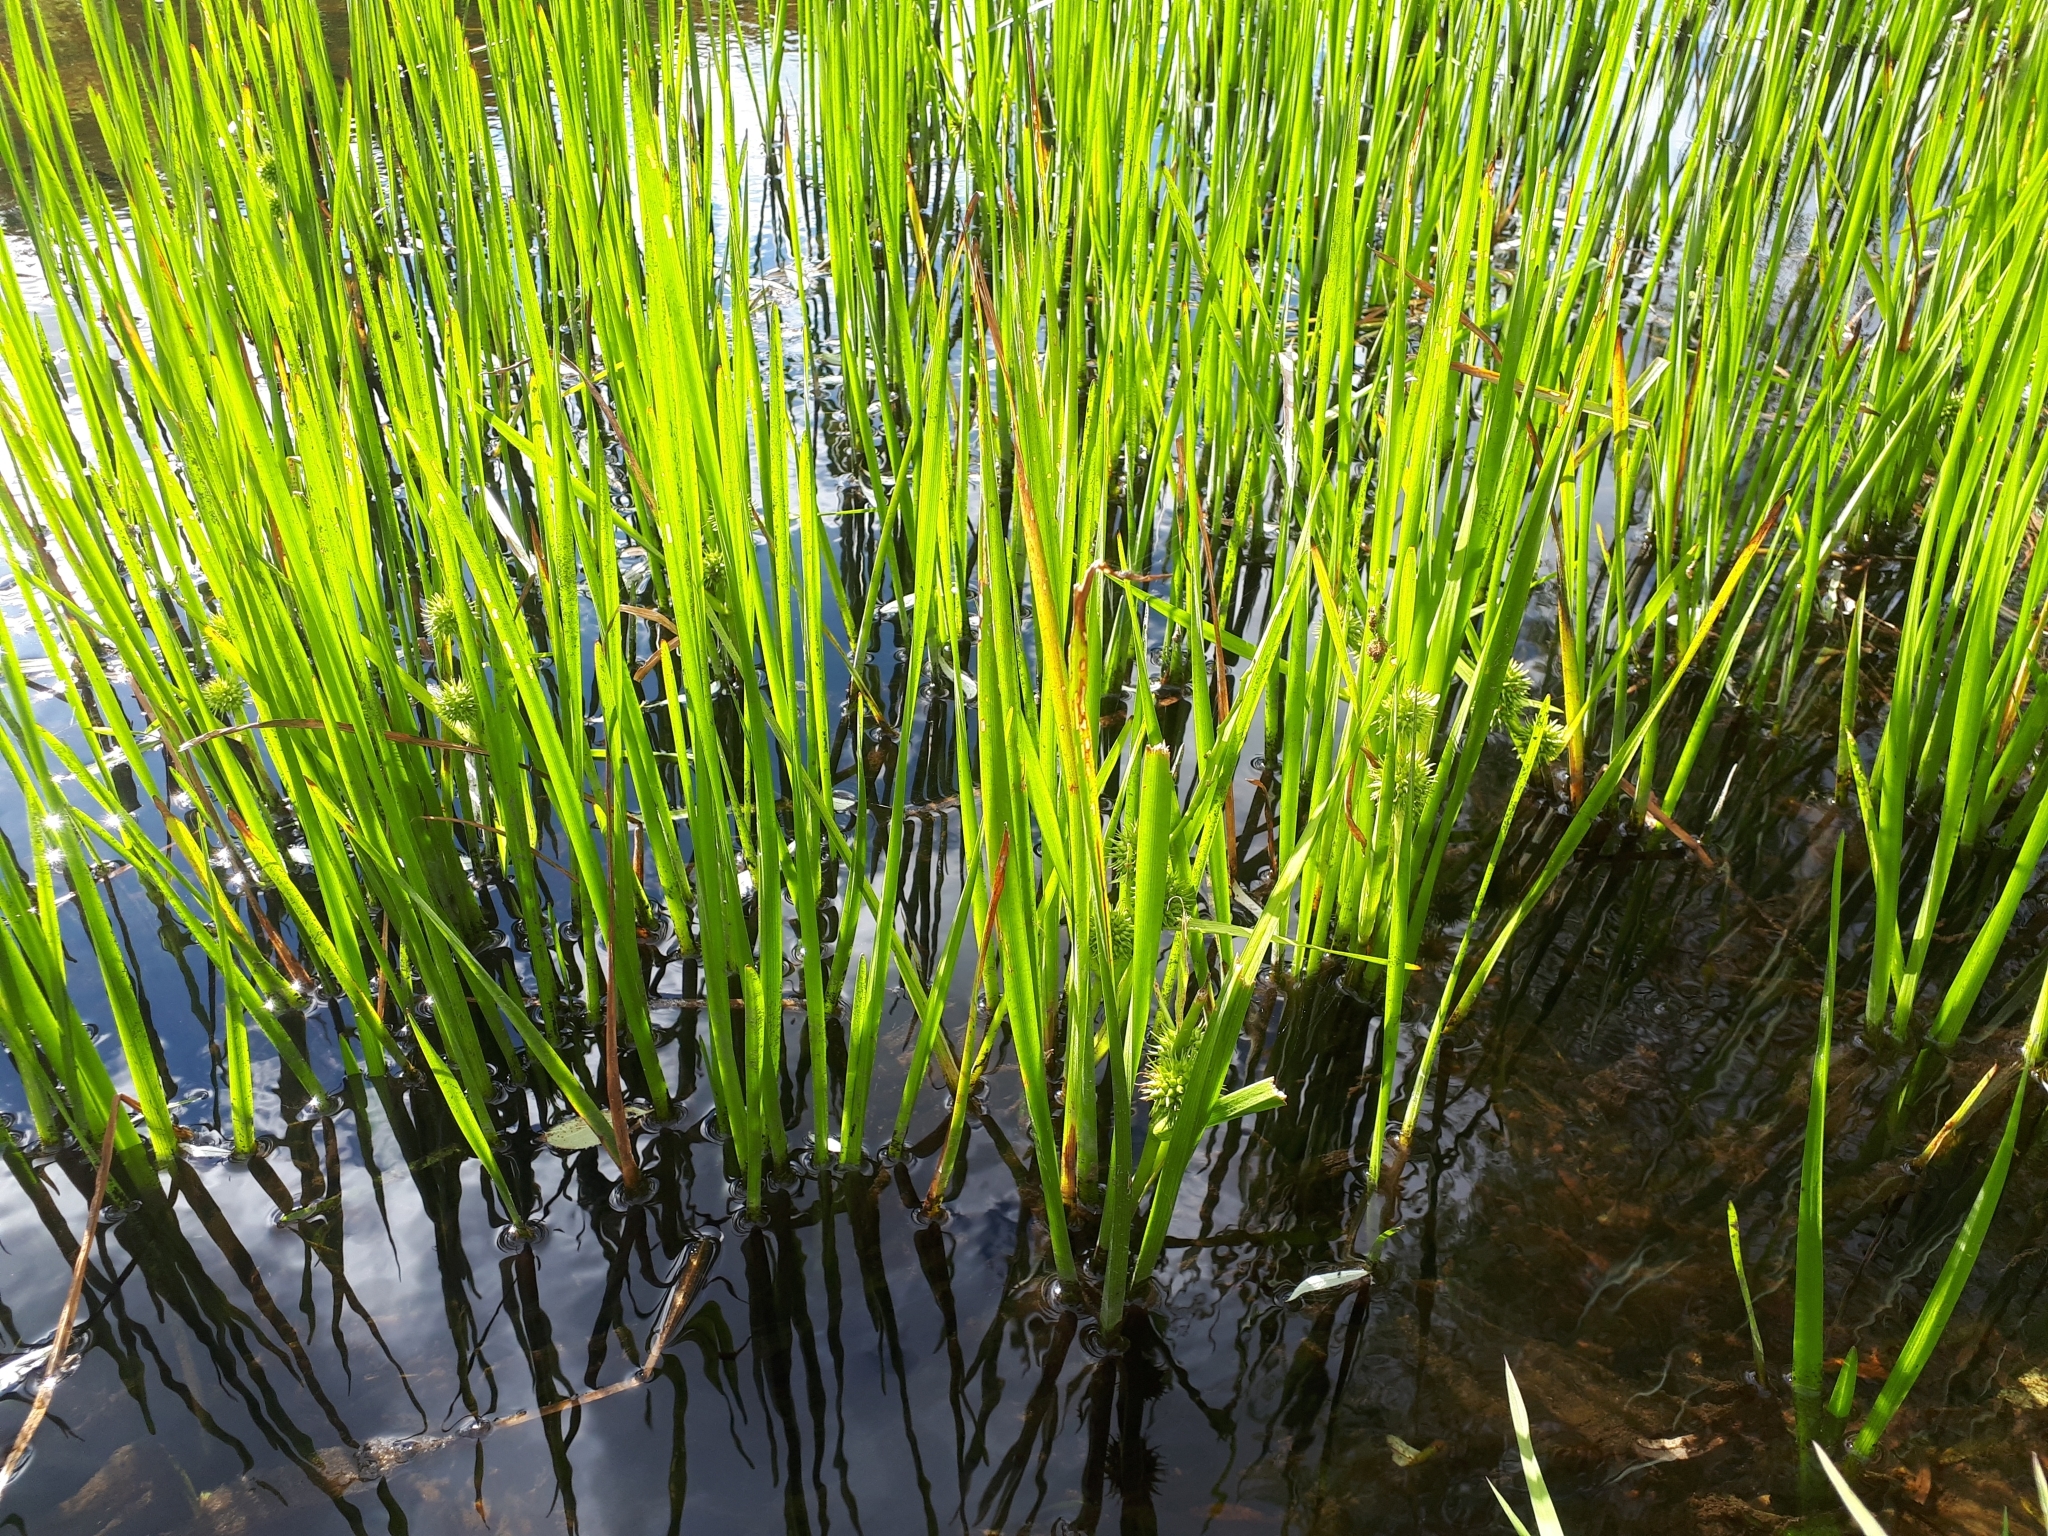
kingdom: Plantae
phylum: Tracheophyta
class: Liliopsida
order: Poales
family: Typhaceae
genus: Sparganium
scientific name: Sparganium emersum
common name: Unbranched bur-reed
